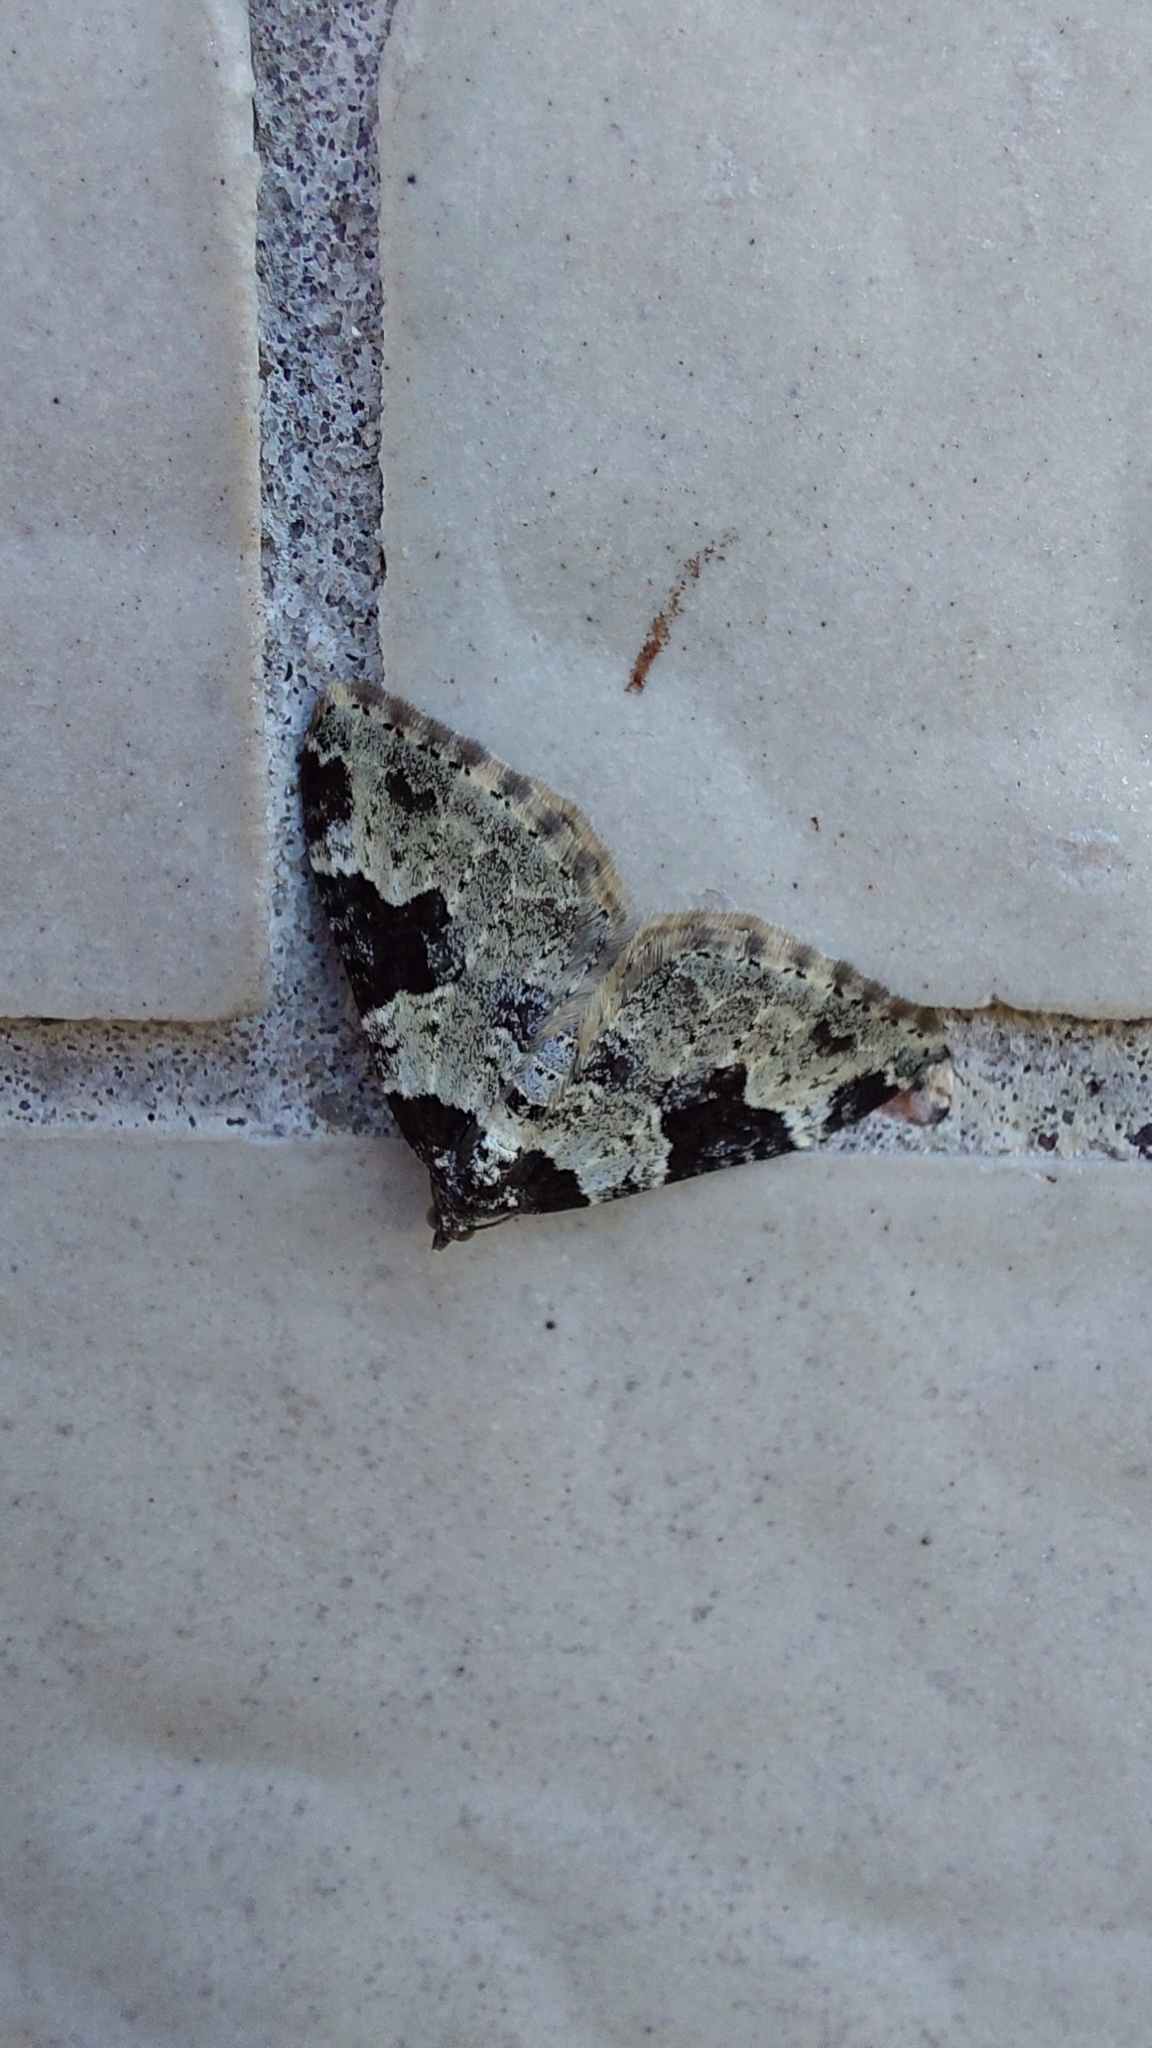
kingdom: Animalia
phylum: Arthropoda
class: Insecta
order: Lepidoptera
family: Geometridae
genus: Xanthorhoe
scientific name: Xanthorhoe fluctuata
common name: Garden carpet
